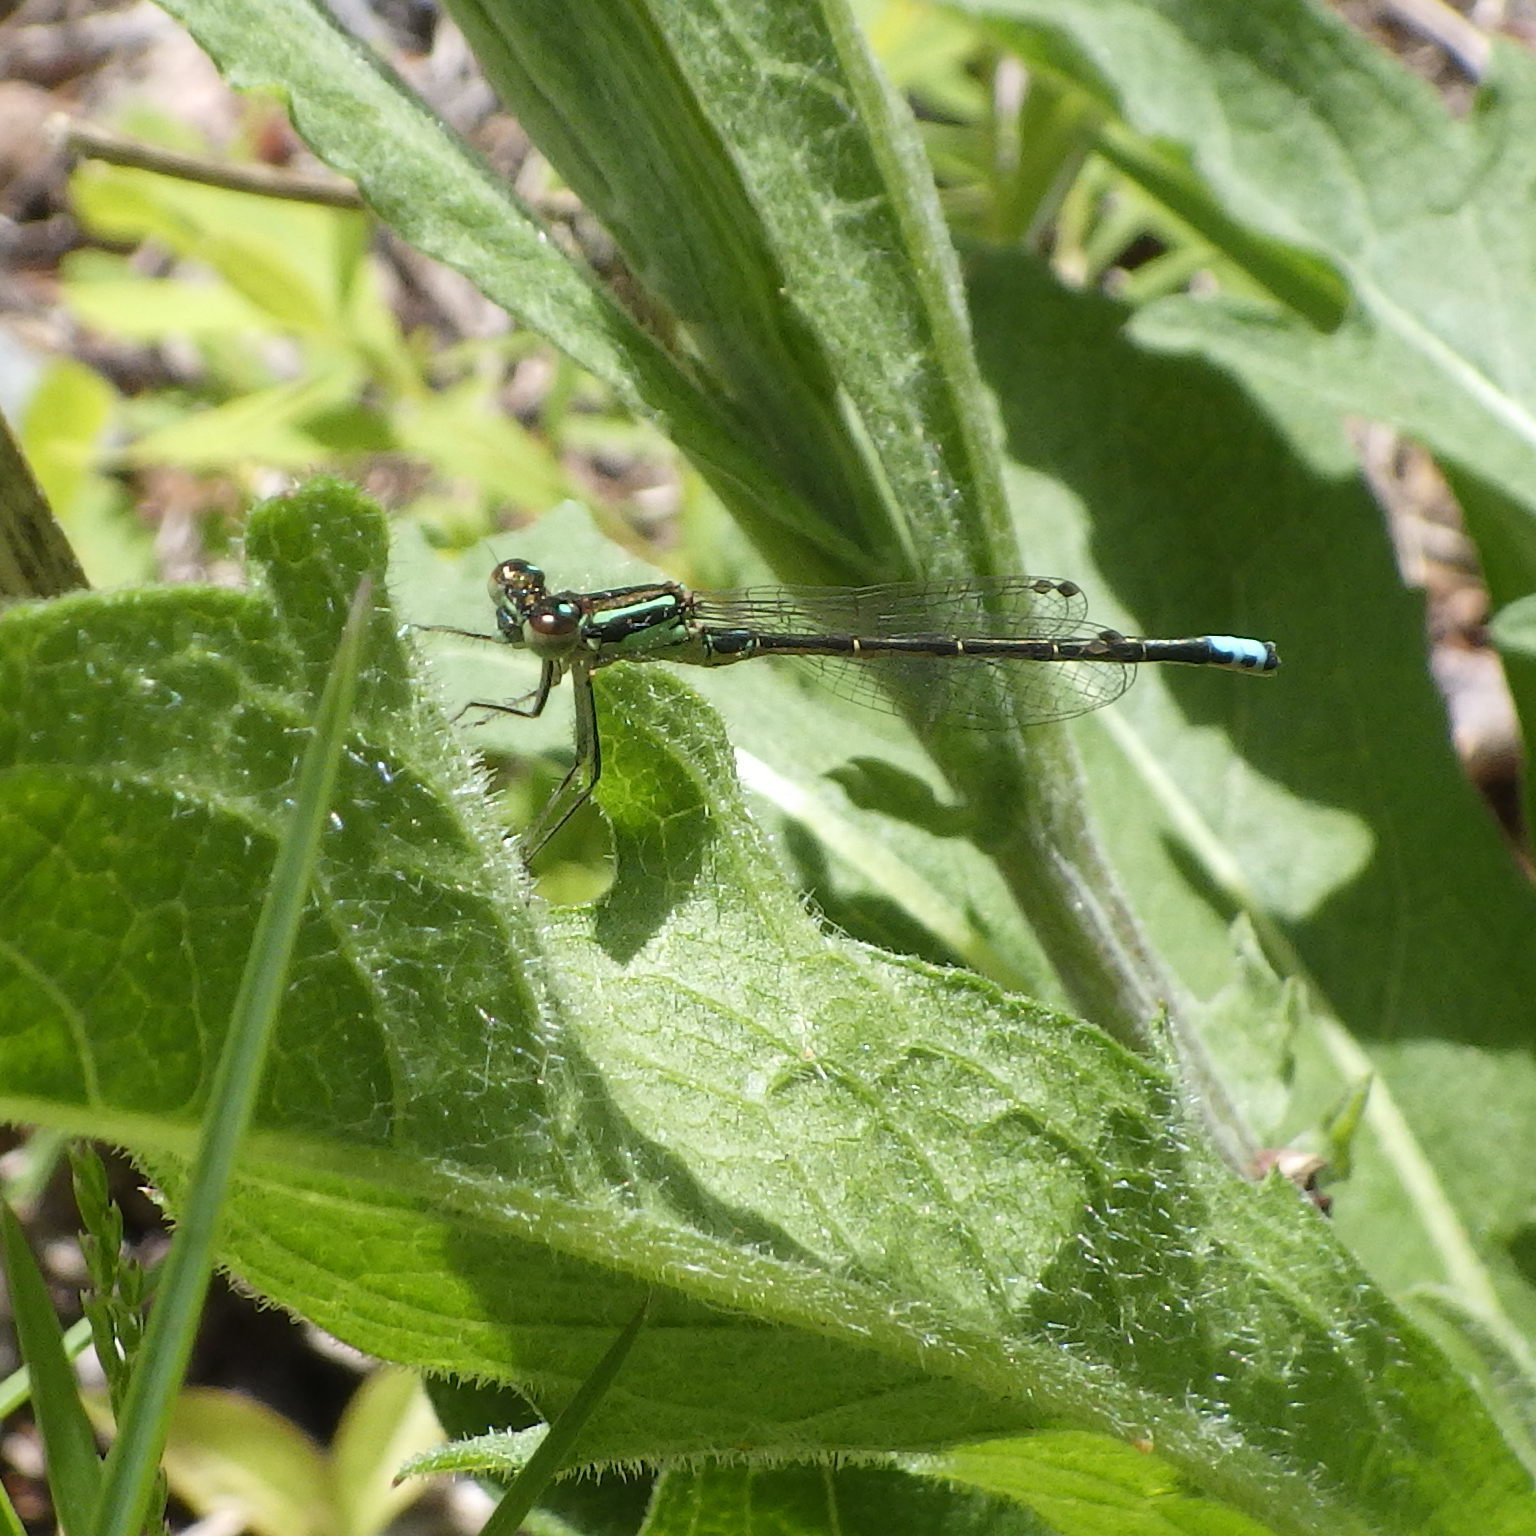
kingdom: Animalia
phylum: Arthropoda
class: Insecta
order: Odonata
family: Coenagrionidae
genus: Ischnura
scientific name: Ischnura verticalis
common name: Eastern forktail
